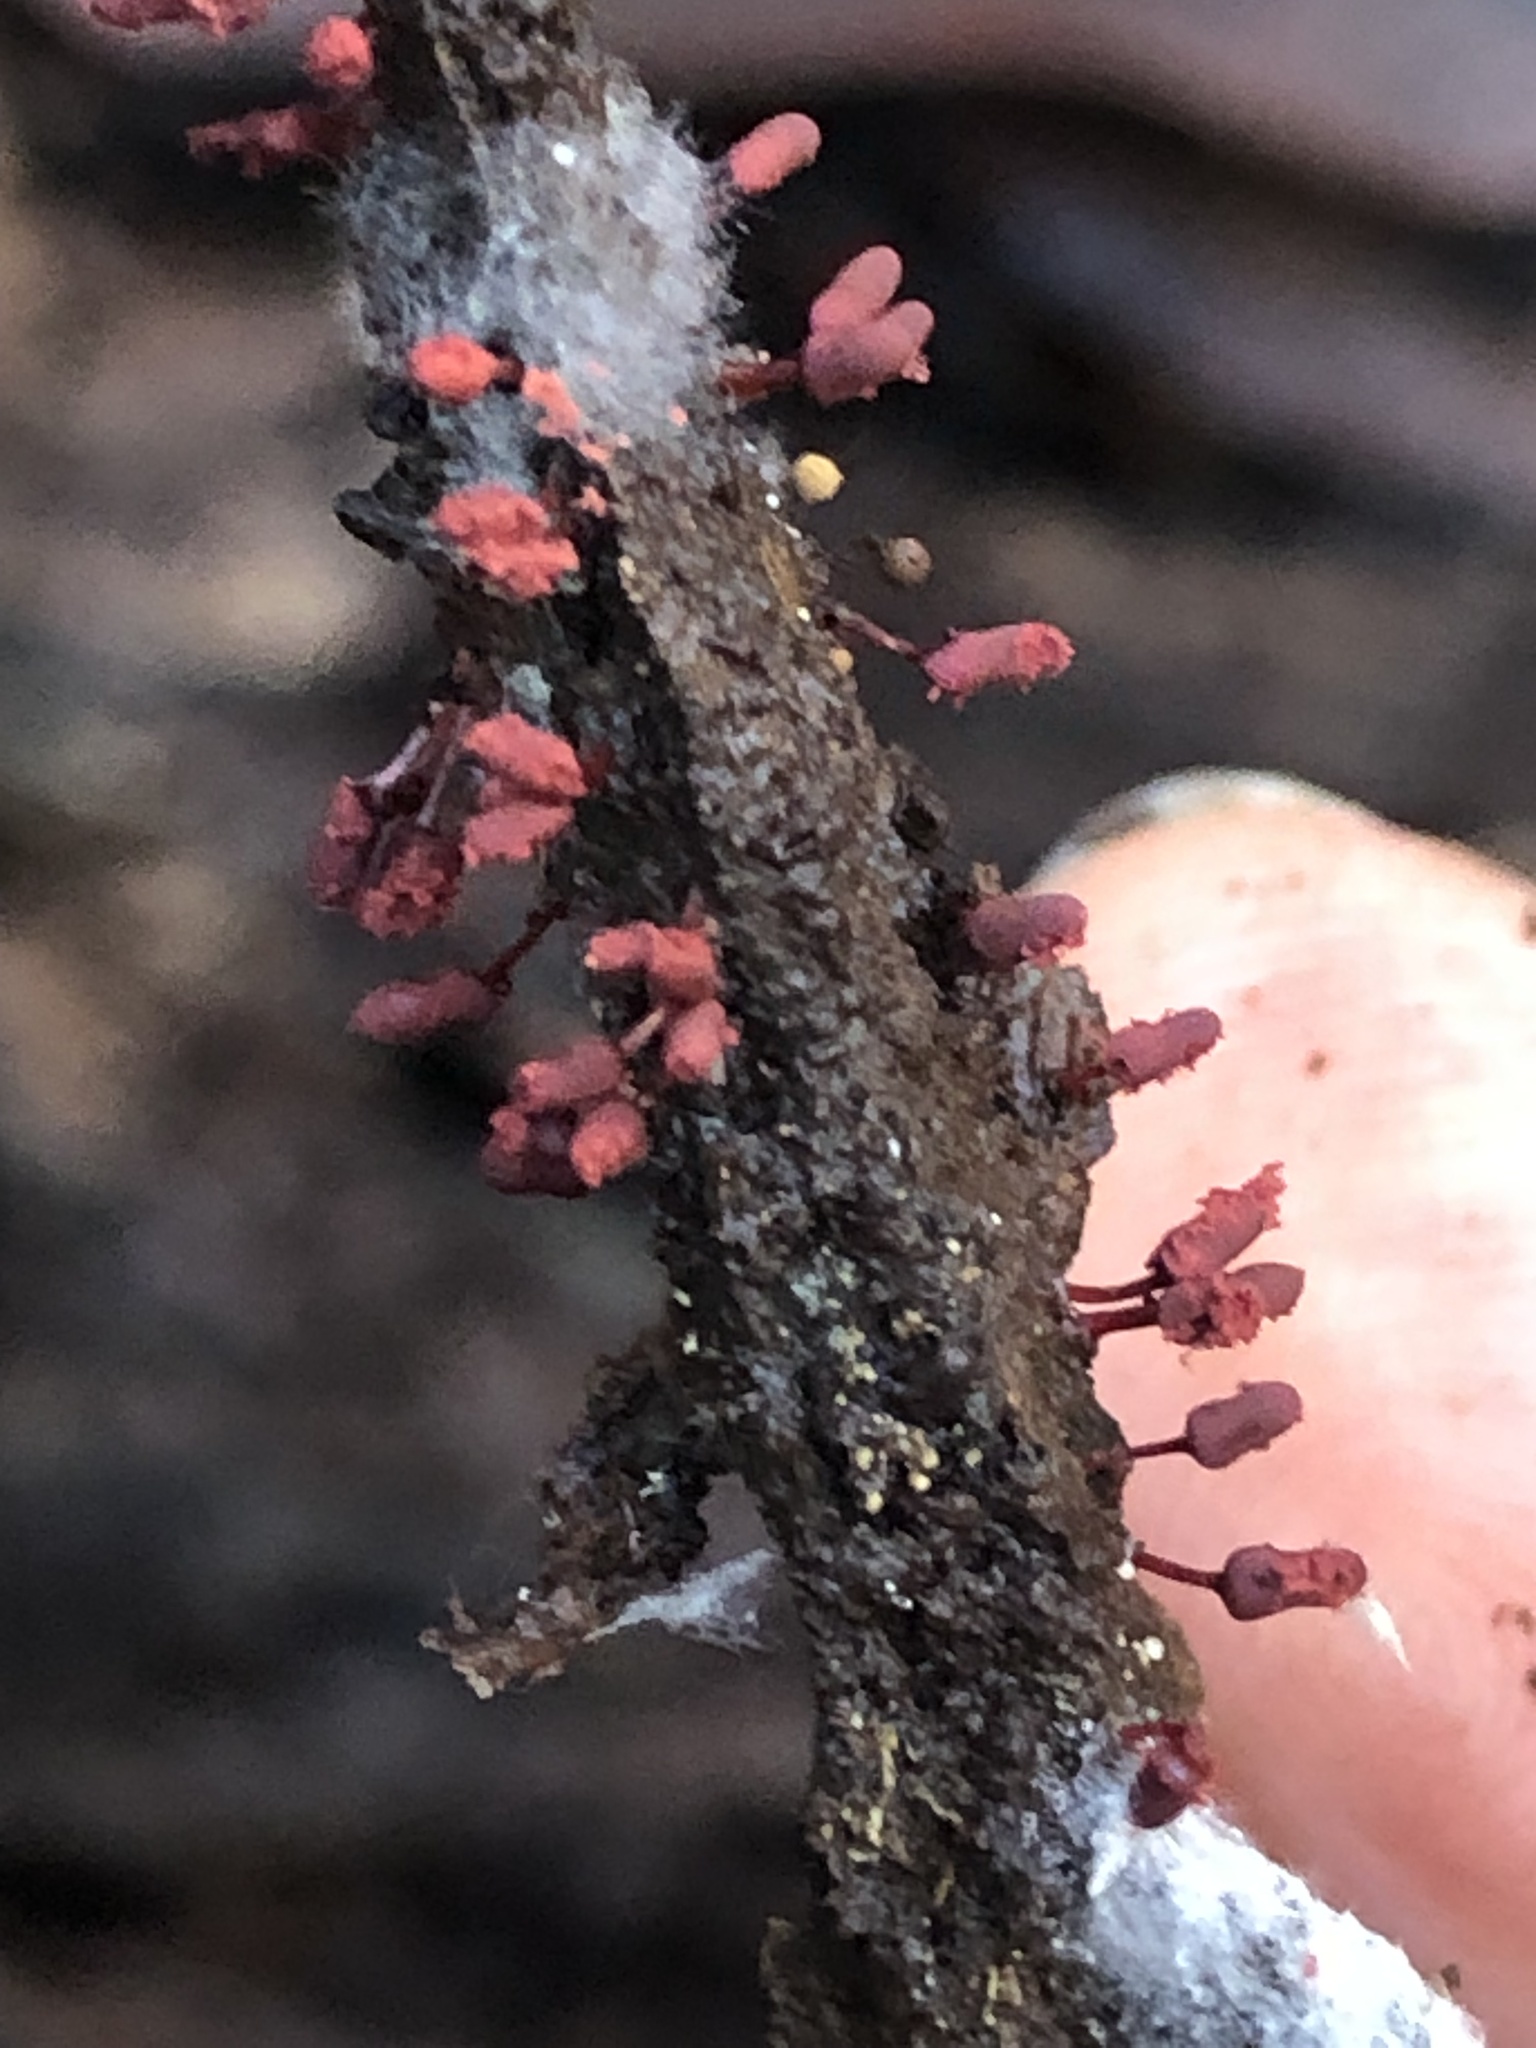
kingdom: Protozoa
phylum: Mycetozoa
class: Myxomycetes
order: Trichiales
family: Arcyriaceae
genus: Arcyria
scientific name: Arcyria denudata
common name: Carnival candy slime mold
